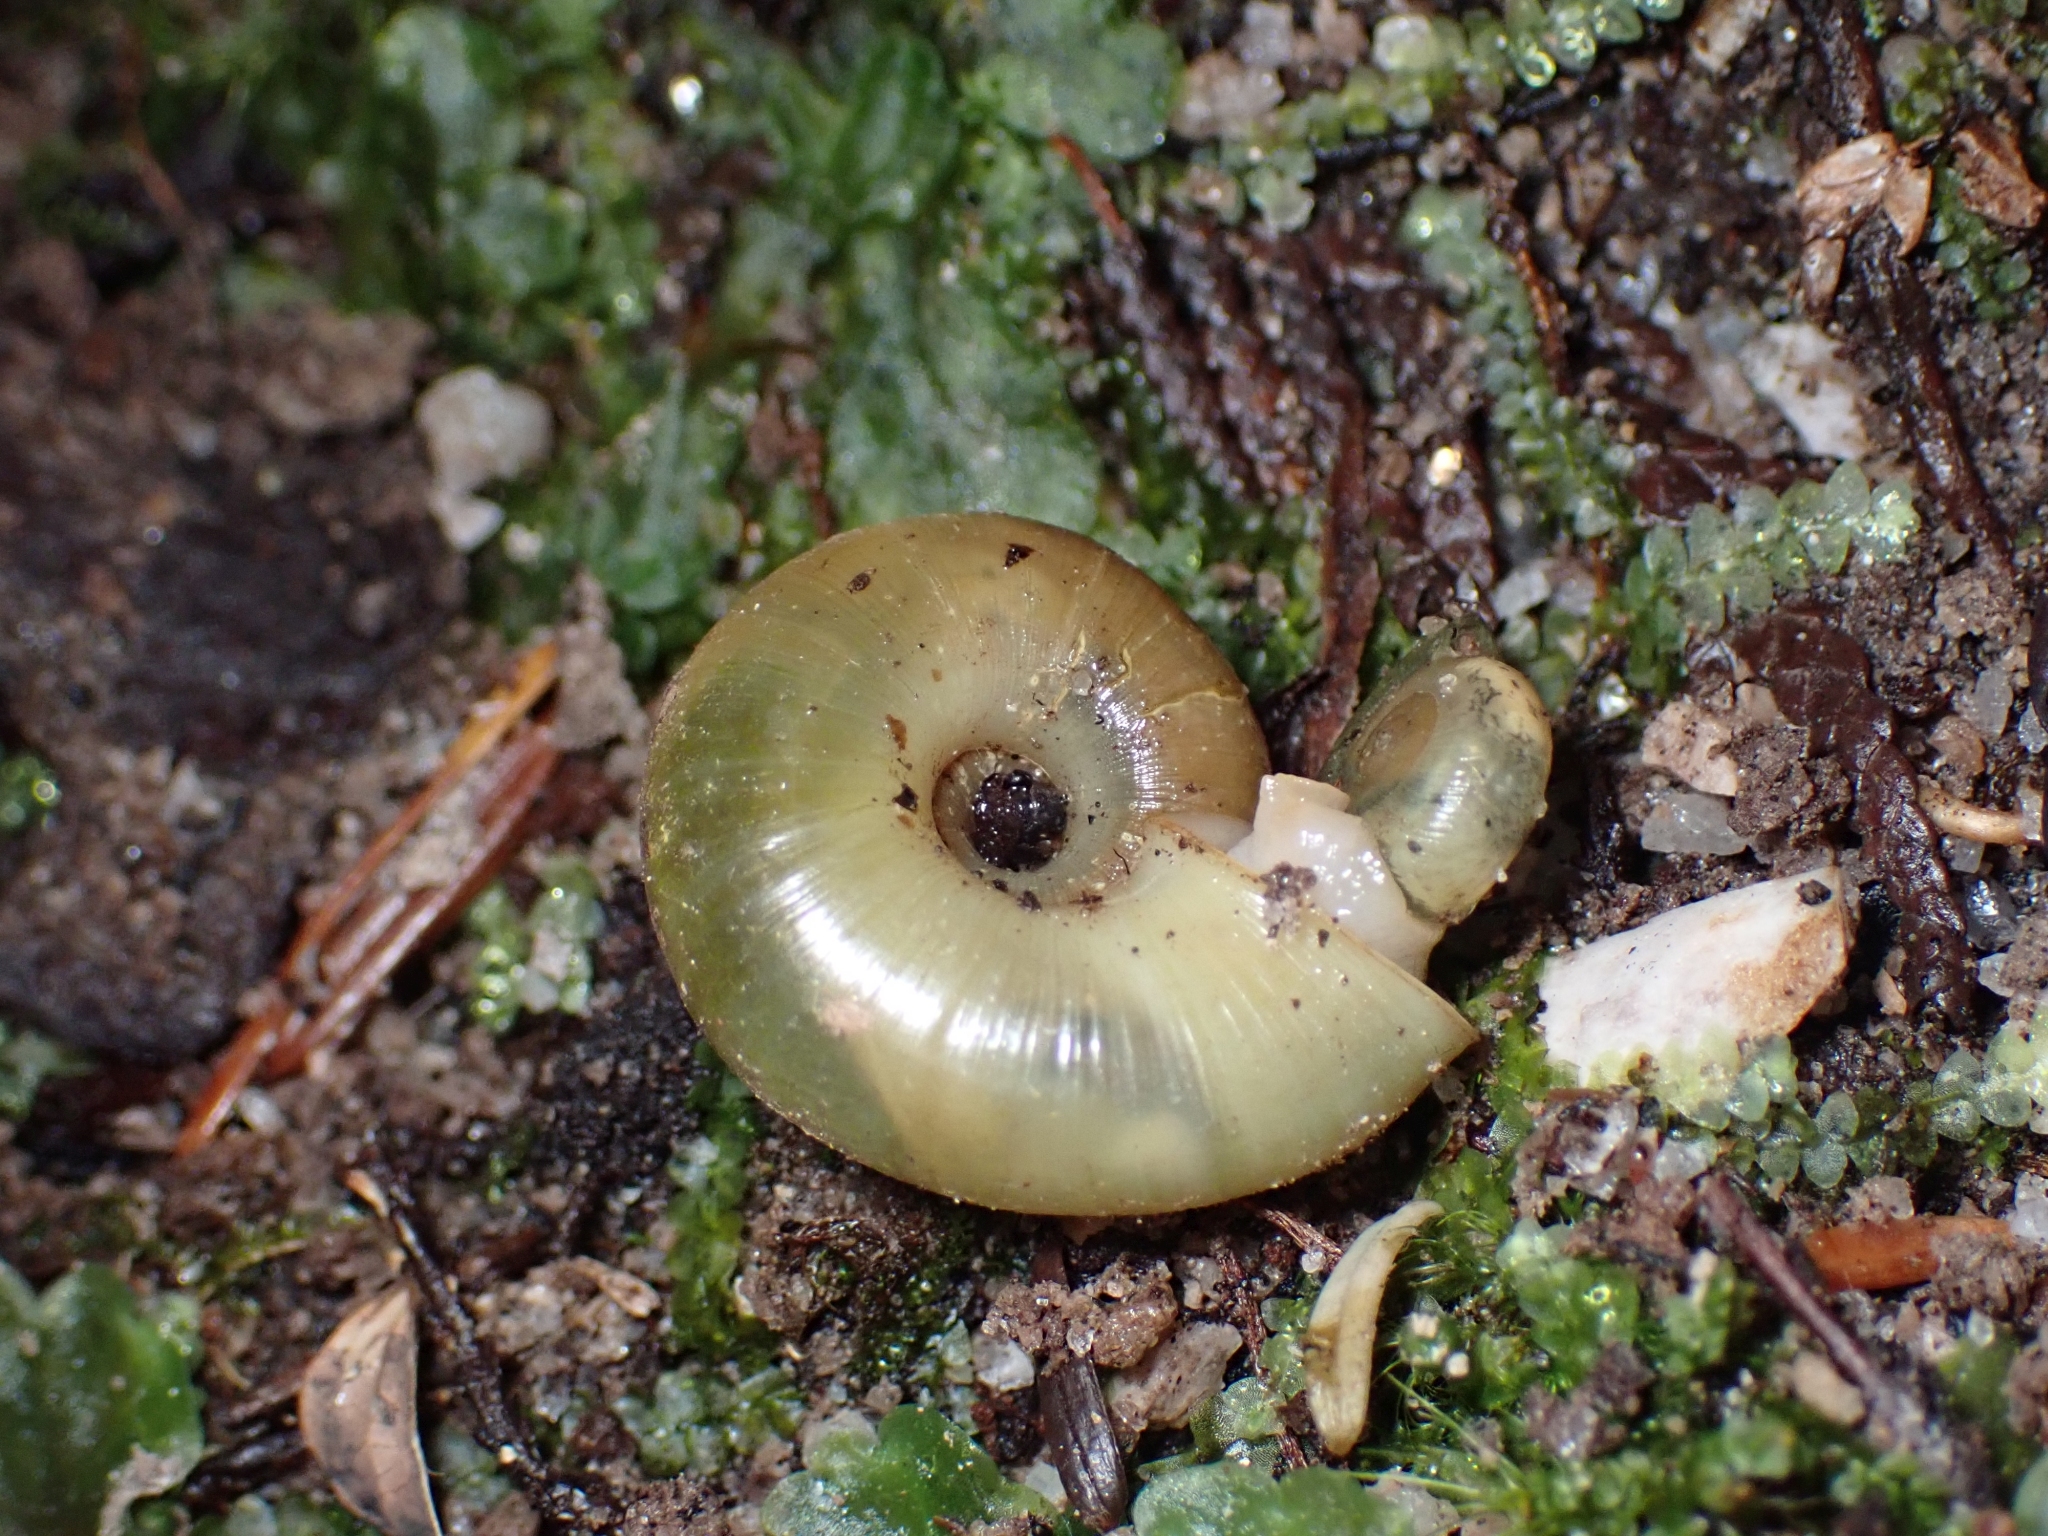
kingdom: Animalia
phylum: Mollusca
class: Gastropoda
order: Stylommatophora
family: Haplotrematidae
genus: Ancotrema
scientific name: Ancotrema sportella
